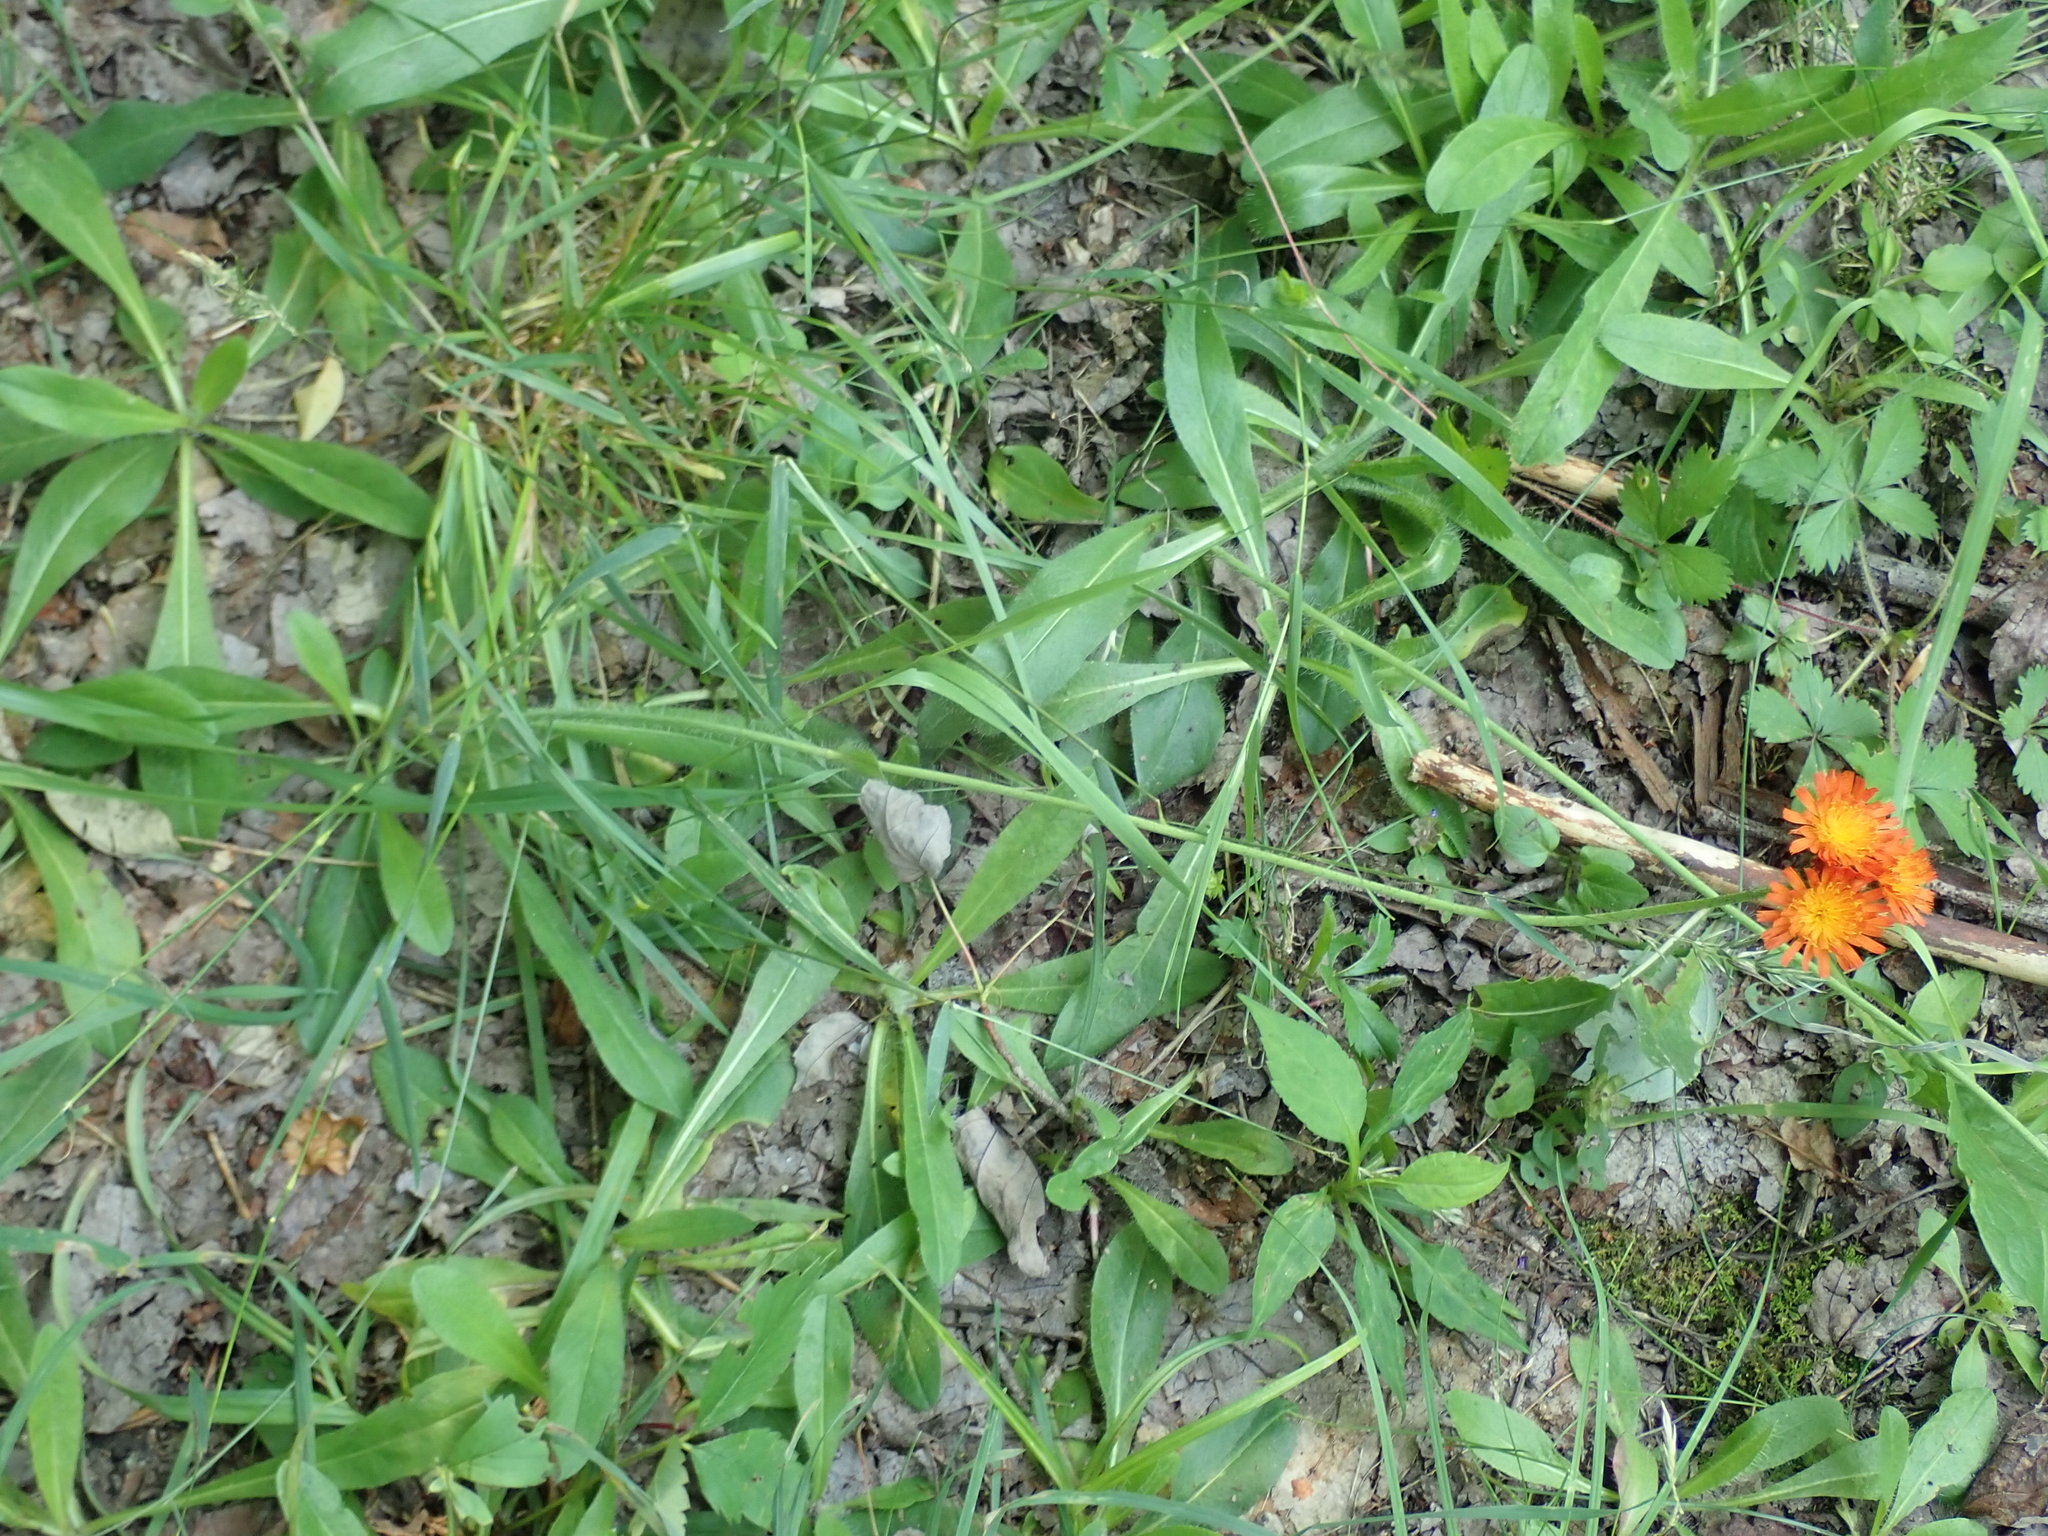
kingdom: Plantae
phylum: Tracheophyta
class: Magnoliopsida
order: Asterales
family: Asteraceae
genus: Pilosella
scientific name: Pilosella aurantiaca
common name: Fox-and-cubs
